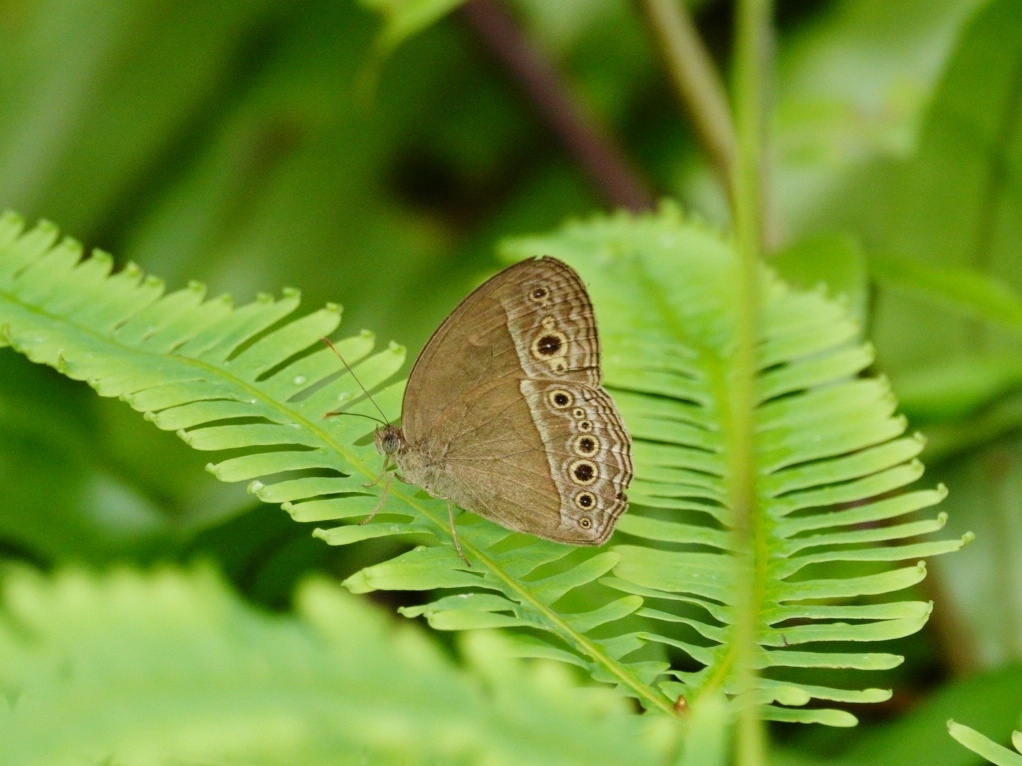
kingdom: Animalia
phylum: Arthropoda
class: Insecta
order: Lepidoptera
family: Nymphalidae
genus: Mycalesis
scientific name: Mycalesis perseoides
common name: Burmese bushbrown
